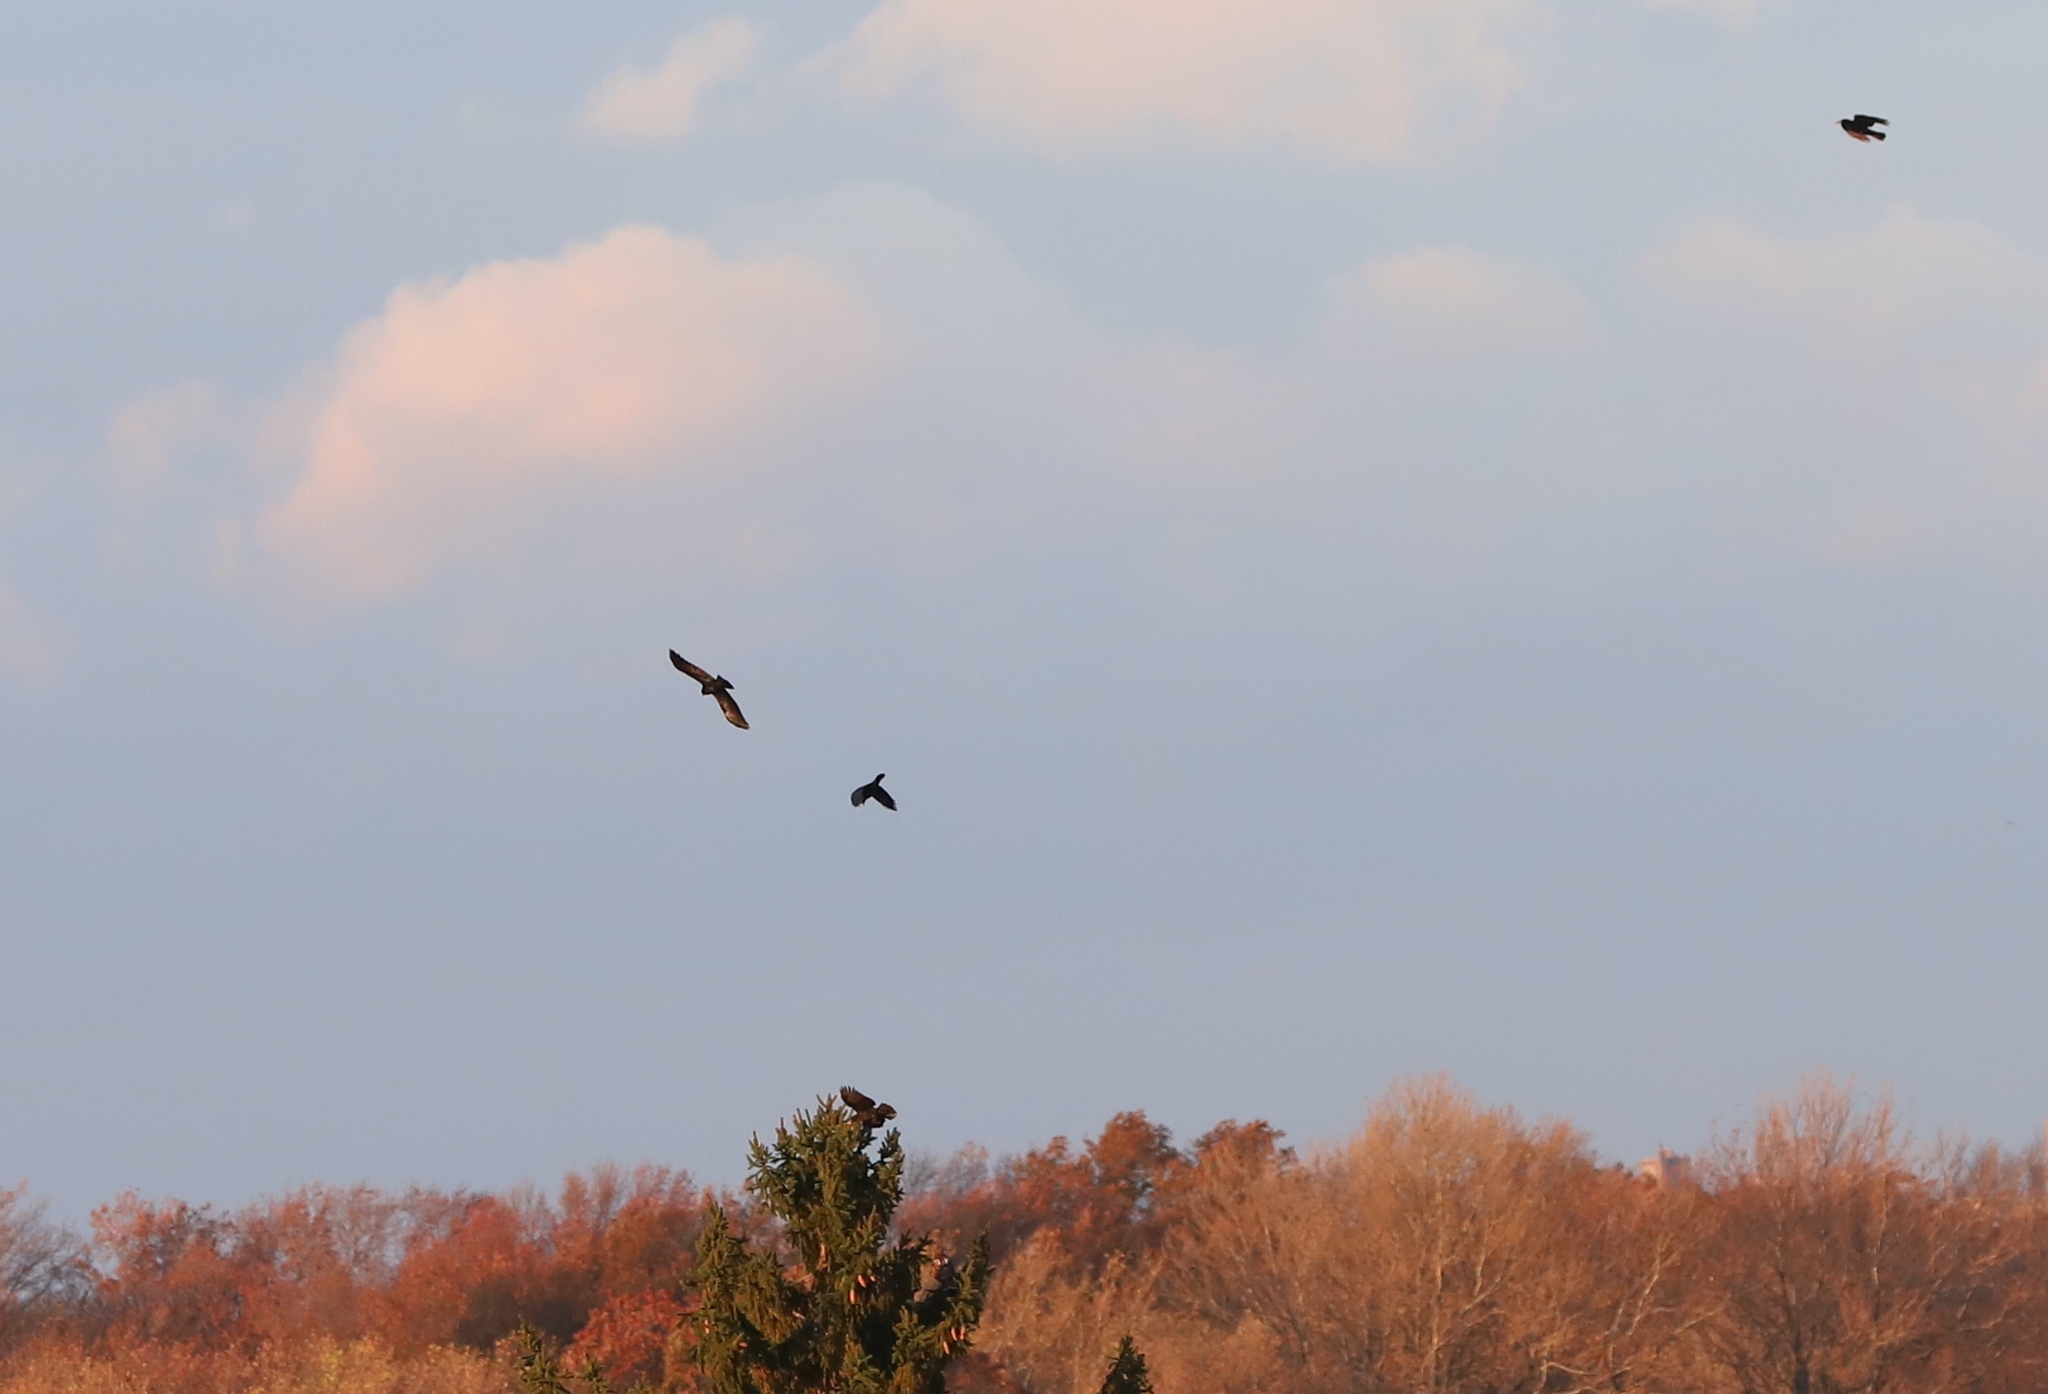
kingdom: Animalia
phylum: Chordata
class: Aves
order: Accipitriformes
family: Accipitridae
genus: Buteo
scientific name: Buteo jamaicensis
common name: Red-tailed hawk
